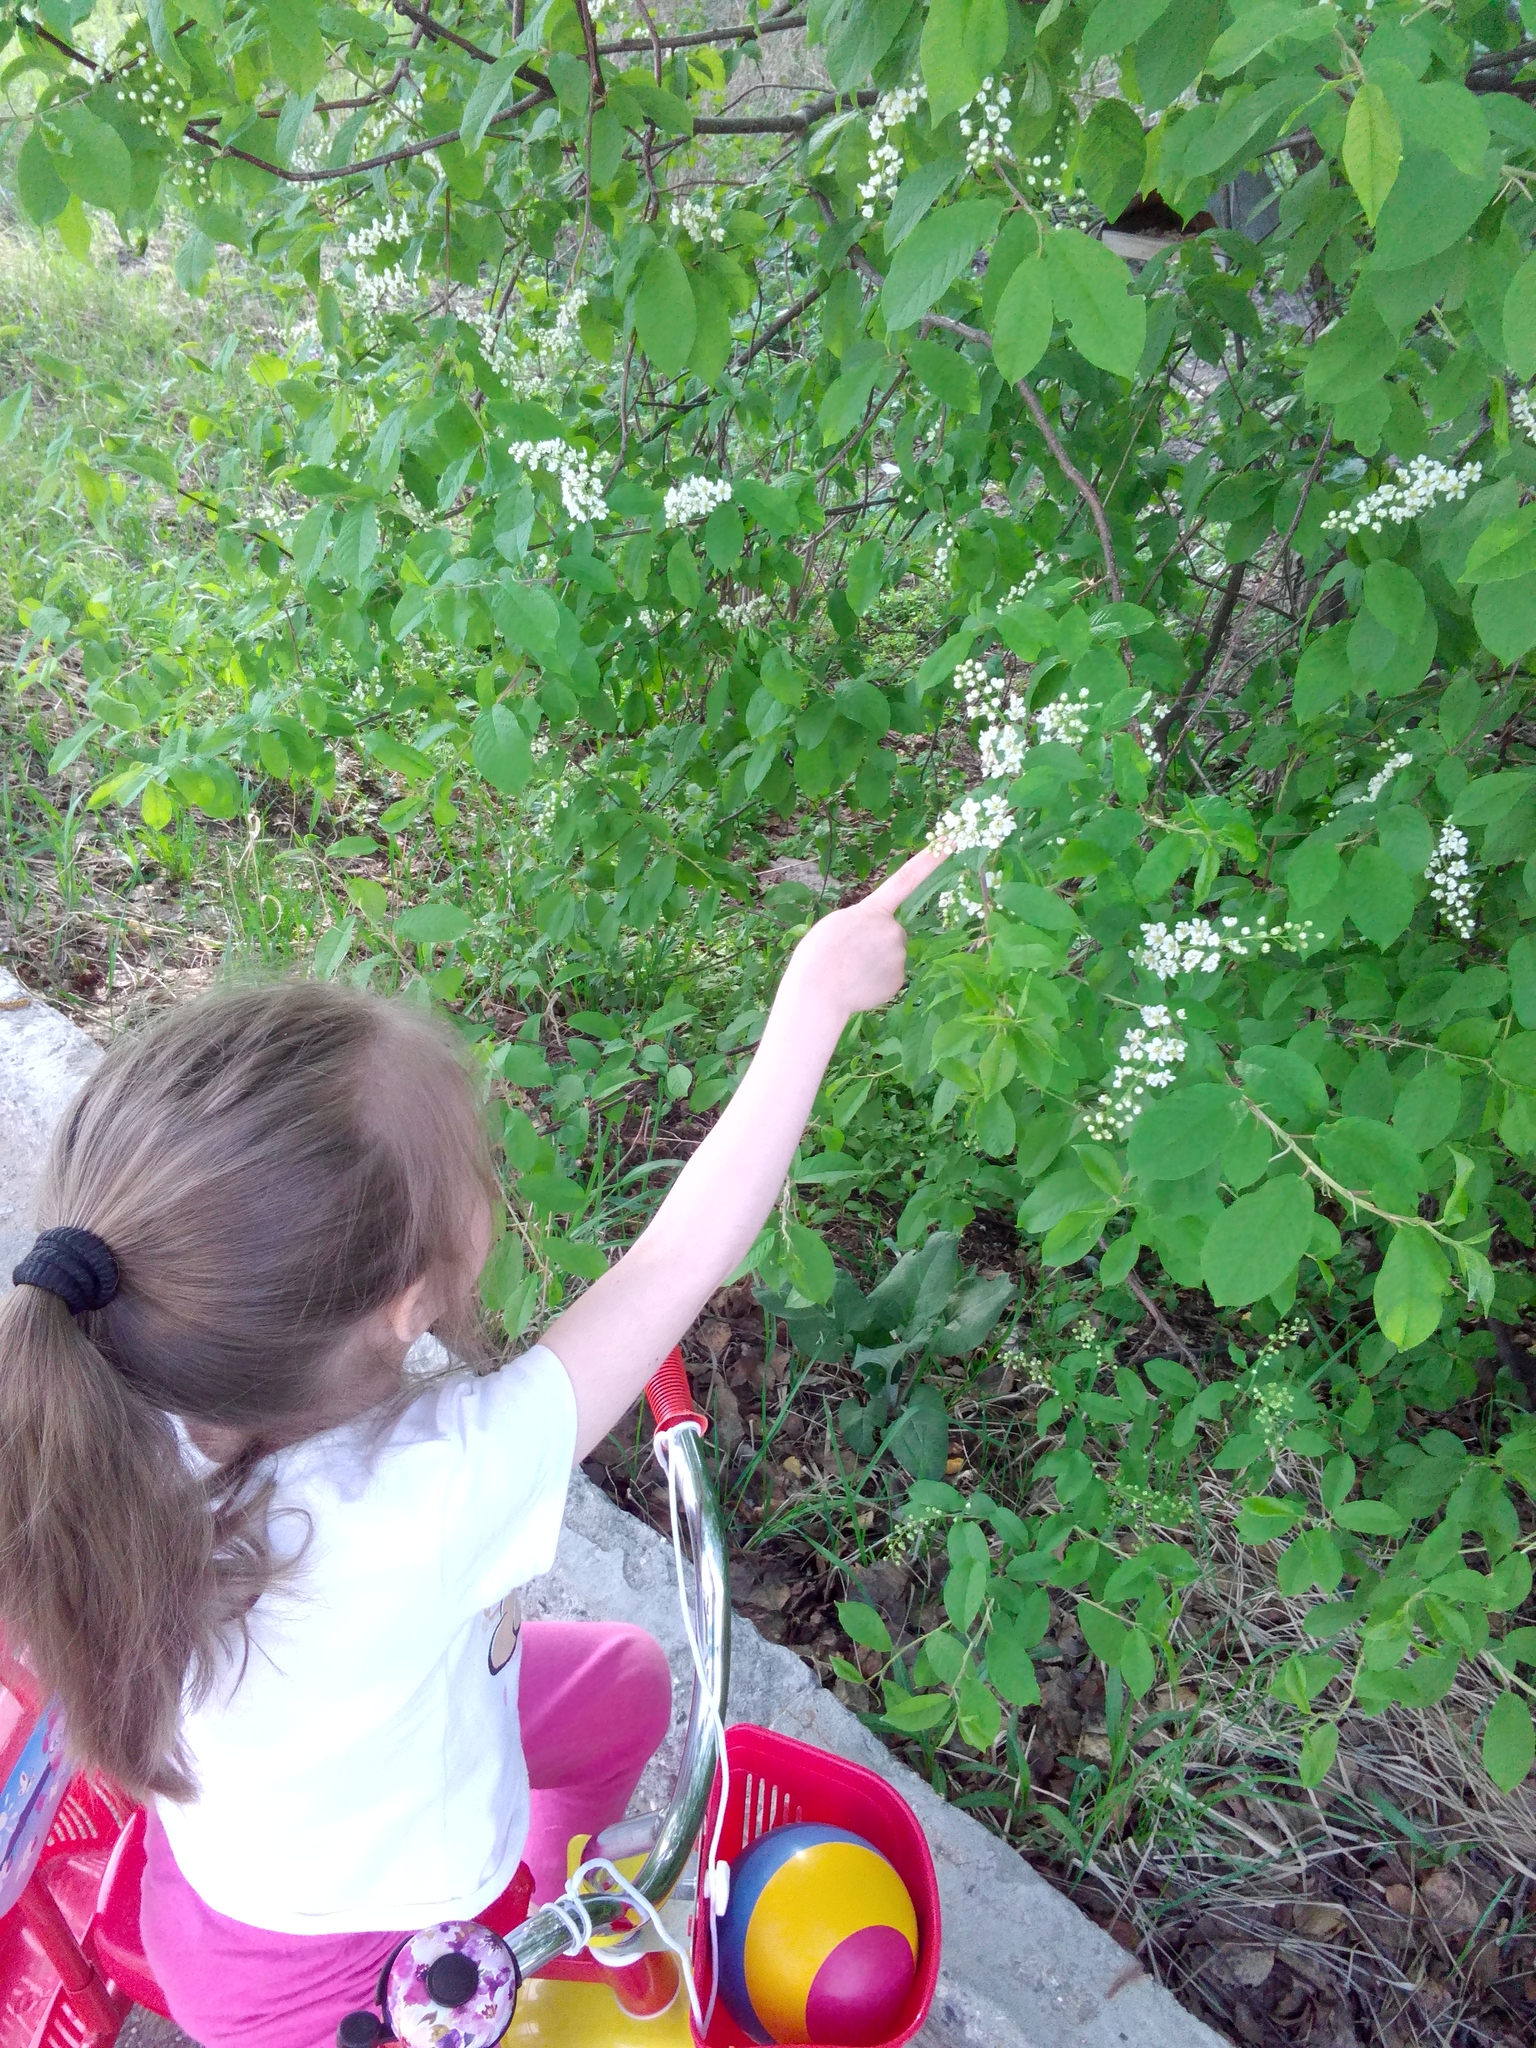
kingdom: Plantae
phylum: Tracheophyta
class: Magnoliopsida
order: Rosales
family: Rosaceae
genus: Prunus
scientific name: Prunus padus
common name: Bird cherry
